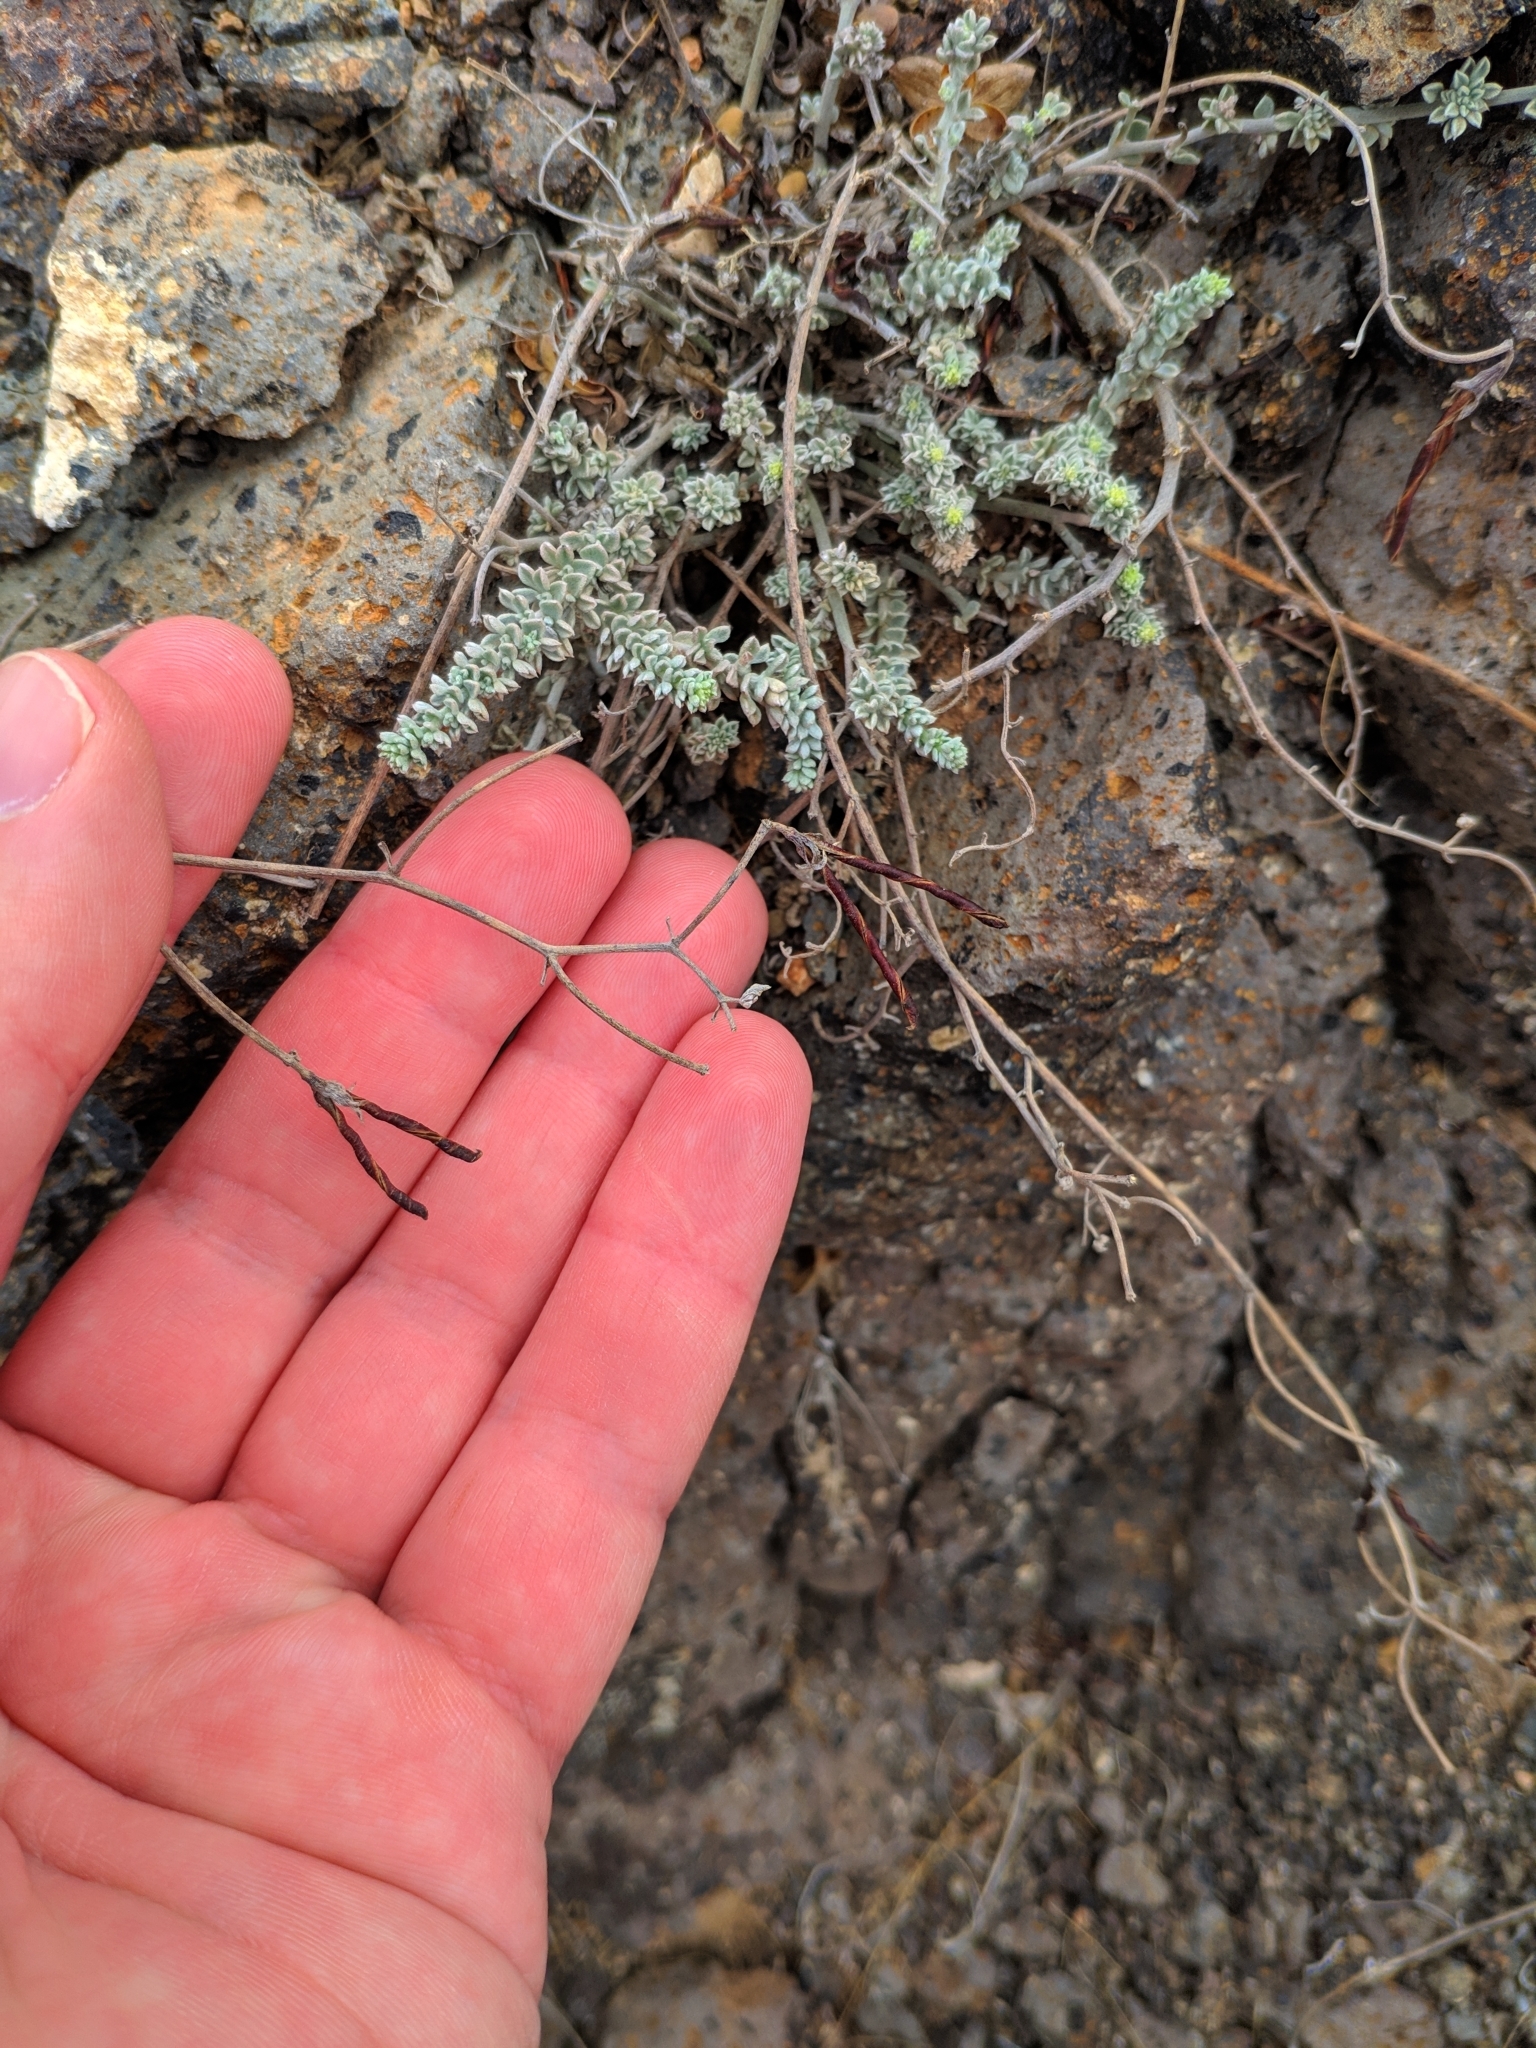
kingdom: Plantae
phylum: Tracheophyta
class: Magnoliopsida
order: Fabales
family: Fabaceae
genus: Lotus
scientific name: Lotus lancerottensis
